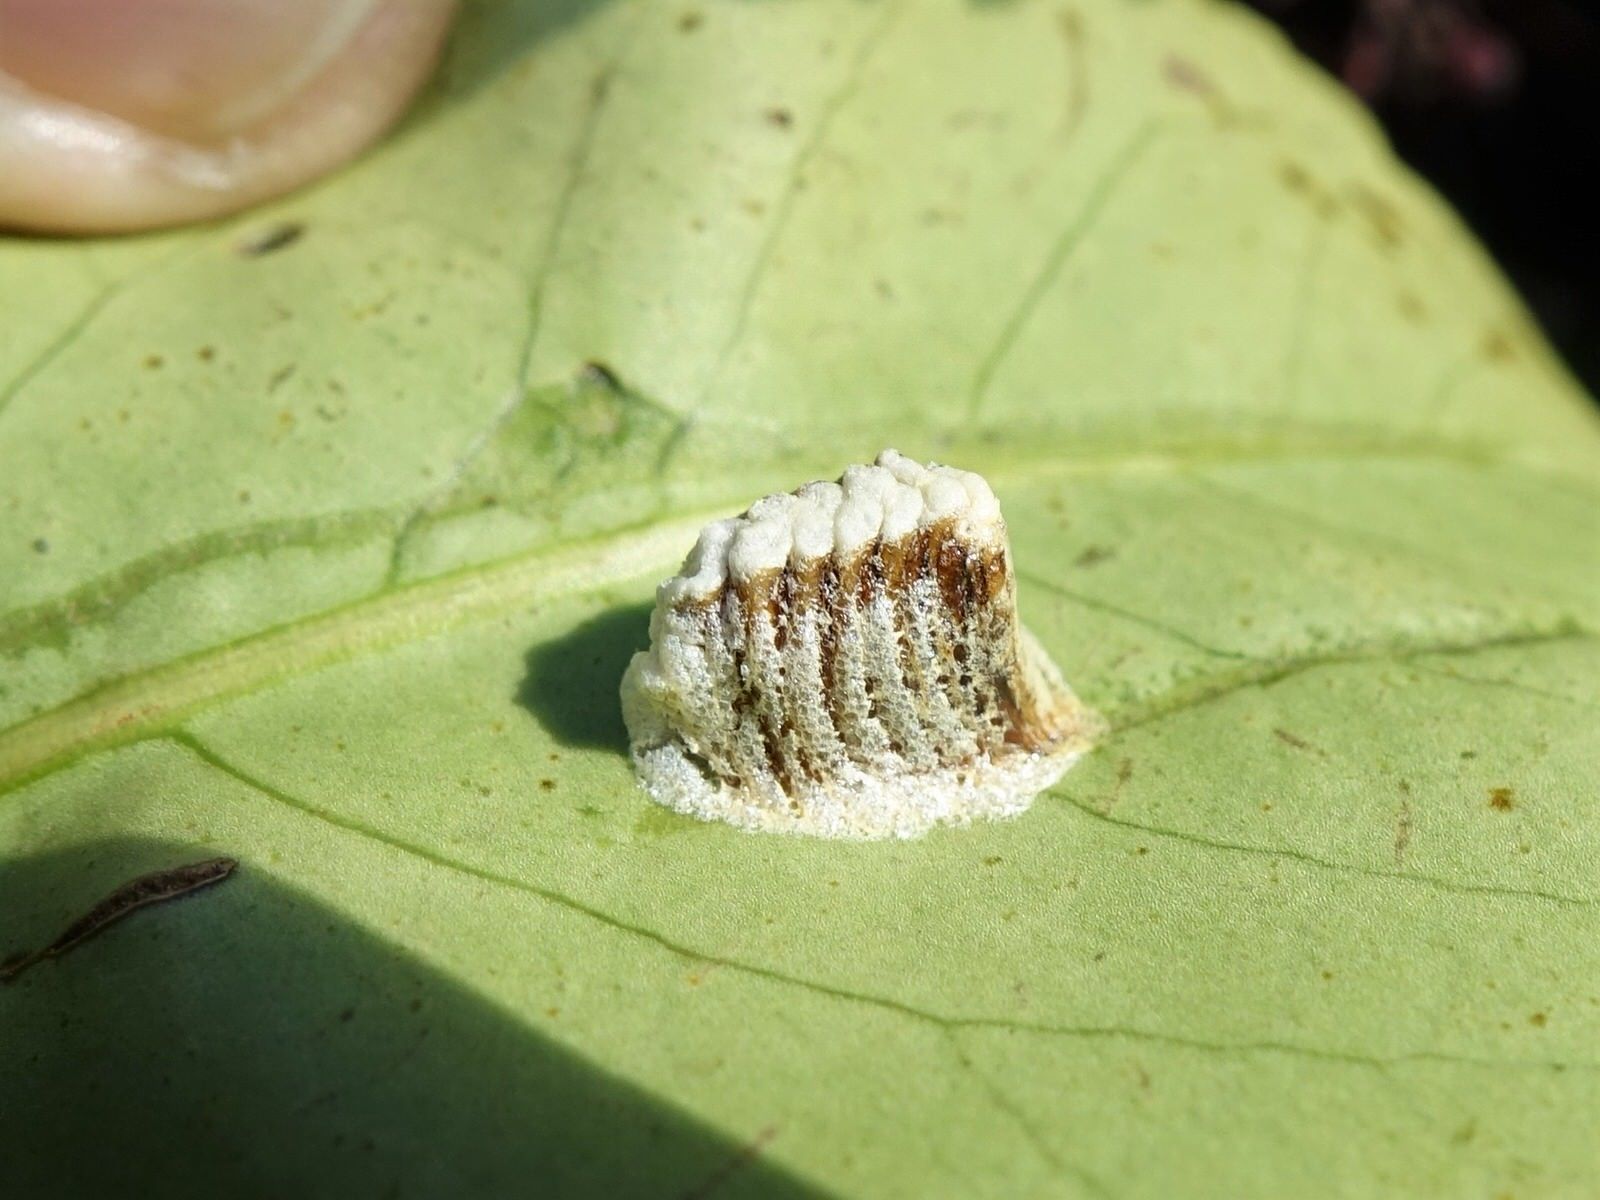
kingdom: Animalia
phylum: Arthropoda
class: Insecta
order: Mantodea
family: Mantidae
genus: Orthodera
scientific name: Orthodera novaezealandiae
